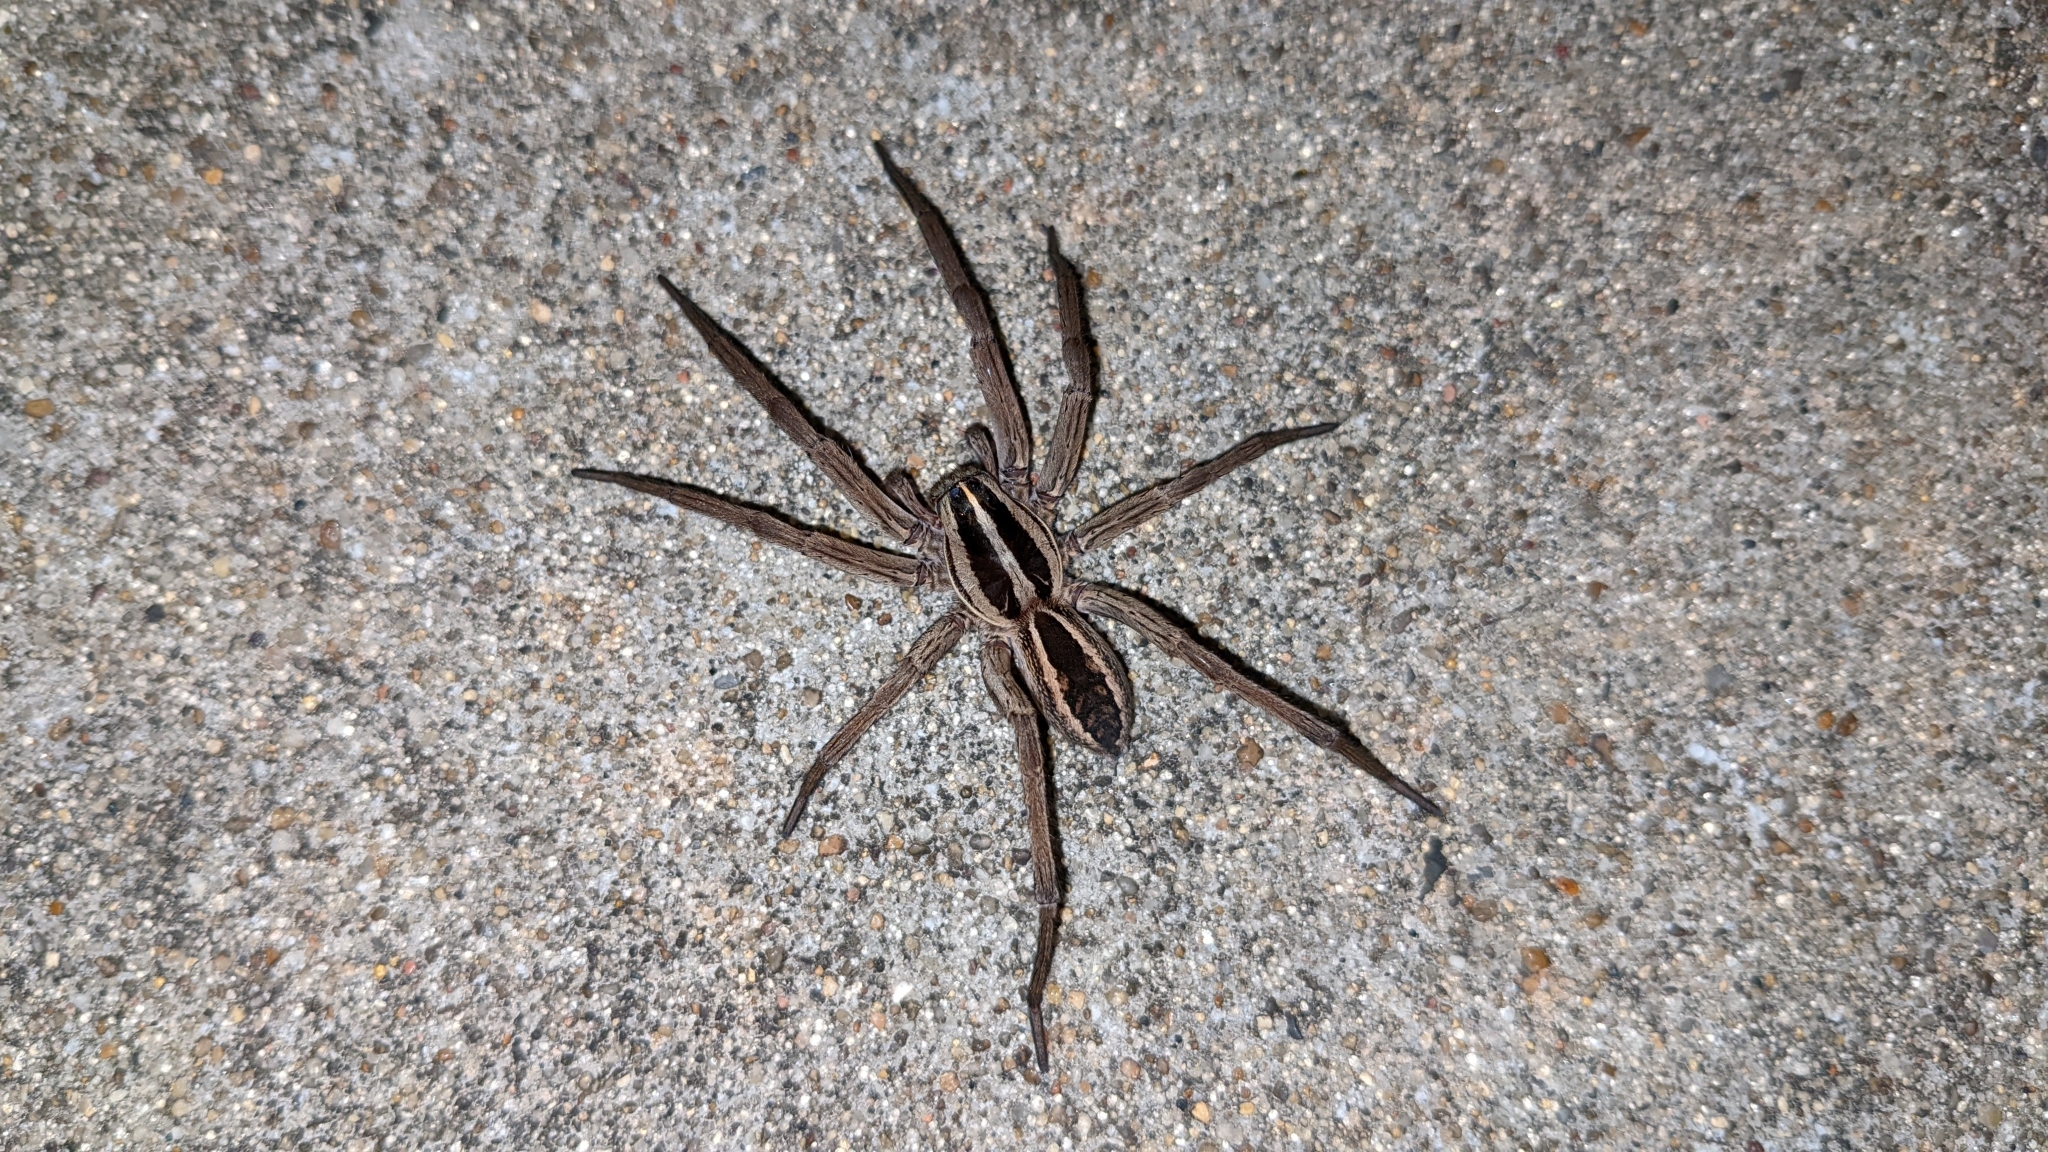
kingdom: Animalia
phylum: Arthropoda
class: Arachnida
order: Araneae
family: Lycosidae
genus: Rabidosa
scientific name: Rabidosa rabida
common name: Rabid wolf spider
